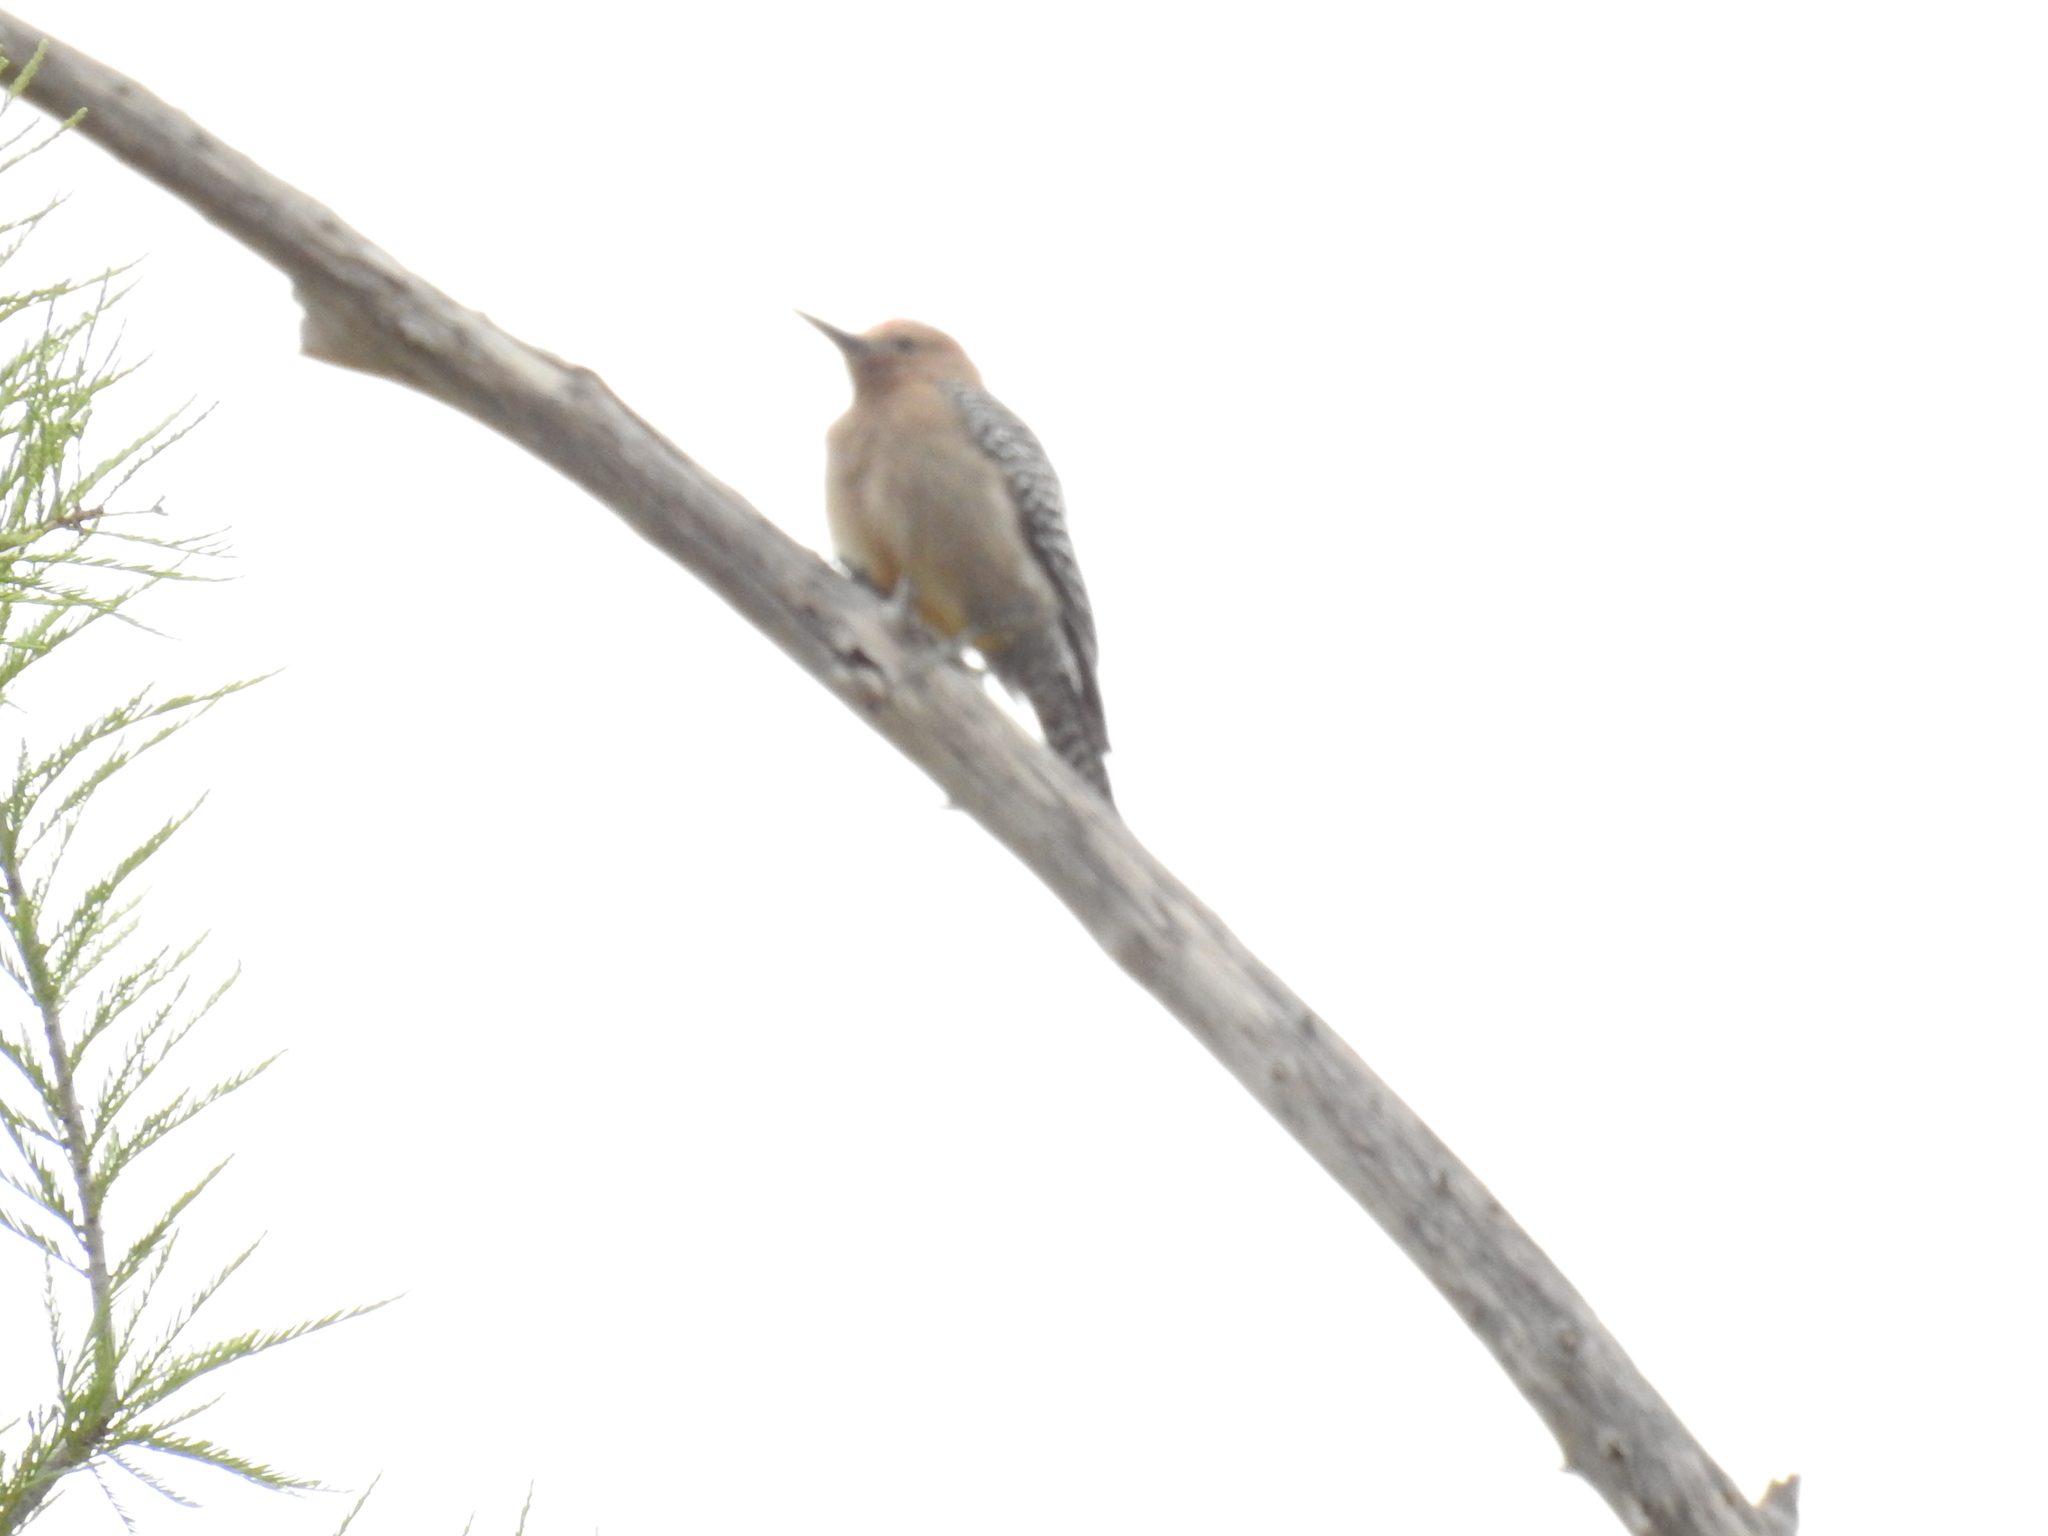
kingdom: Animalia
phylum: Chordata
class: Aves
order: Piciformes
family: Picidae
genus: Melanerpes
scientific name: Melanerpes uropygialis
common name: Gila woodpecker
